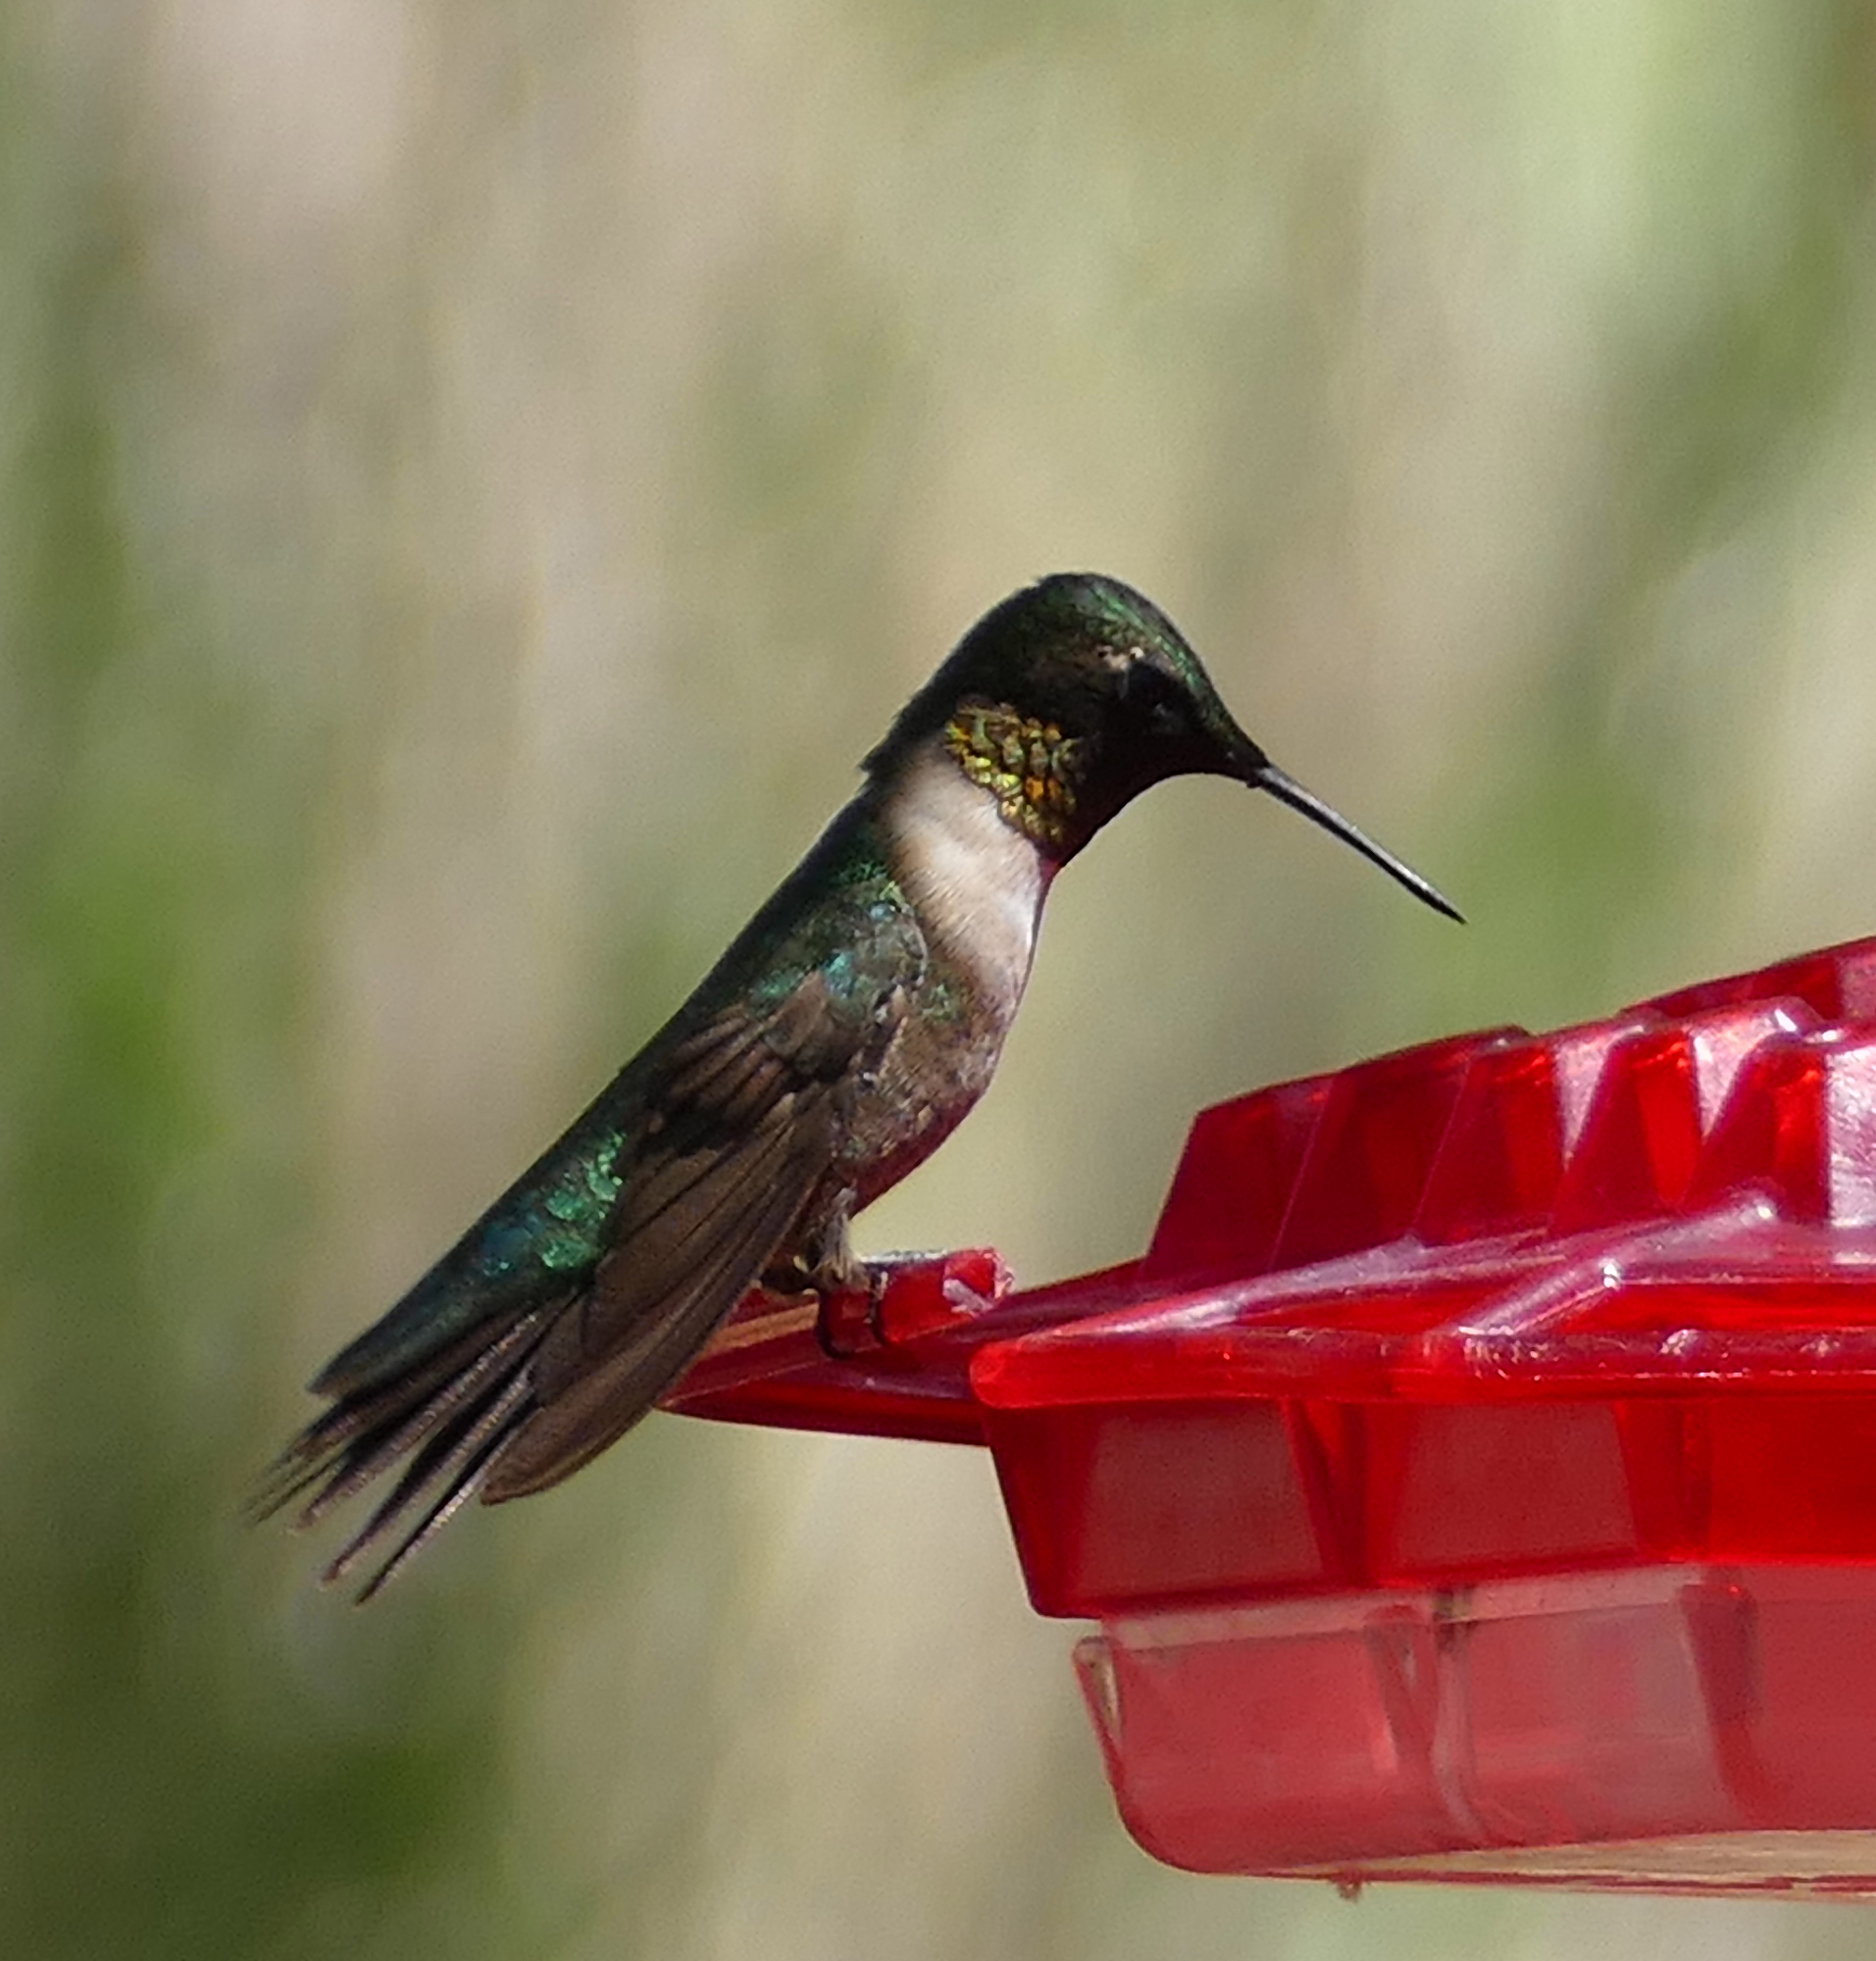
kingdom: Animalia
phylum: Chordata
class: Aves
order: Apodiformes
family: Trochilidae
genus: Archilochus
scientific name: Archilochus colubris
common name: Ruby-throated hummingbird
